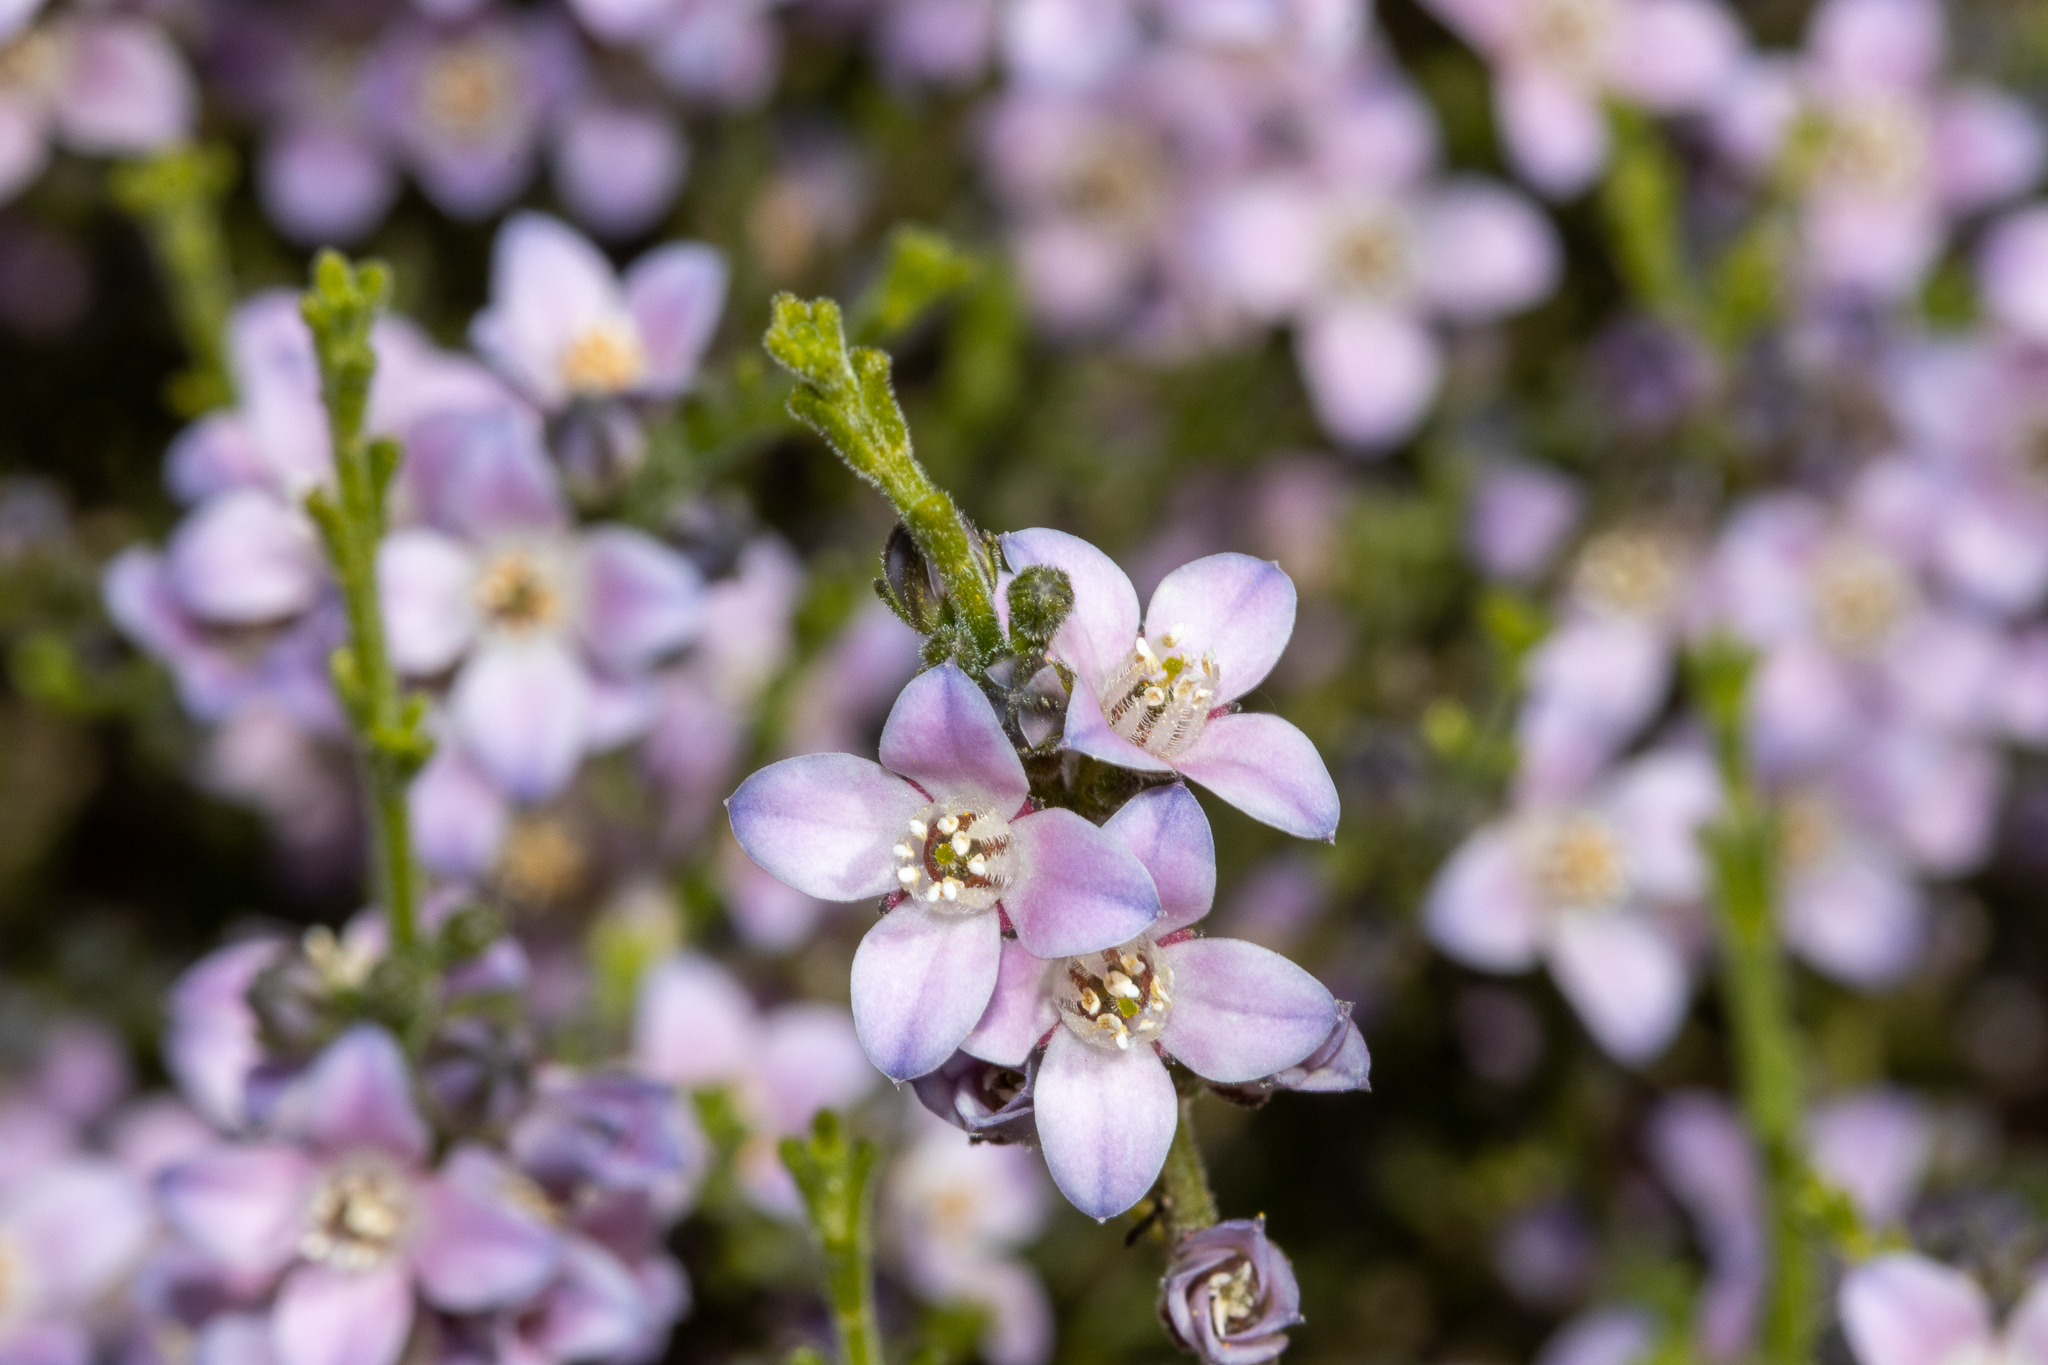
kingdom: Plantae
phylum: Tracheophyta
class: Magnoliopsida
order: Sapindales
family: Rutaceae
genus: Cyanothamnus
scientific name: Cyanothamnus coerulescens
